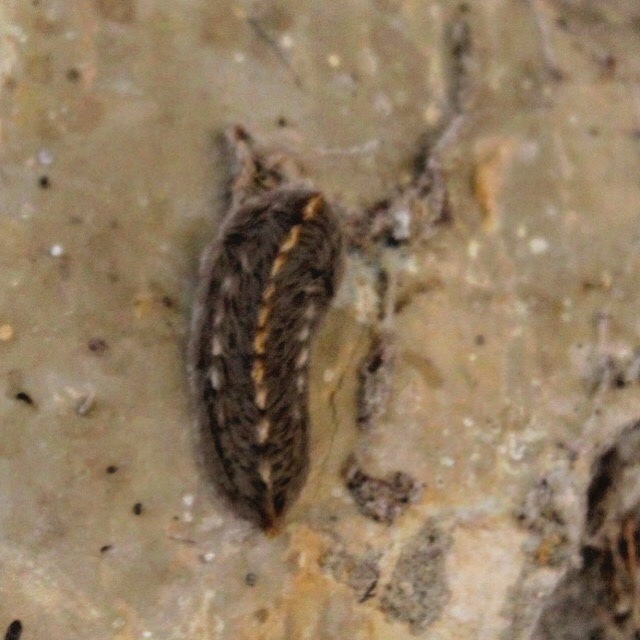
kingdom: Animalia
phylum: Arthropoda
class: Insecta
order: Lepidoptera
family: Megalopygidae
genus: Megalopyge
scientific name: Megalopyge opercularis
